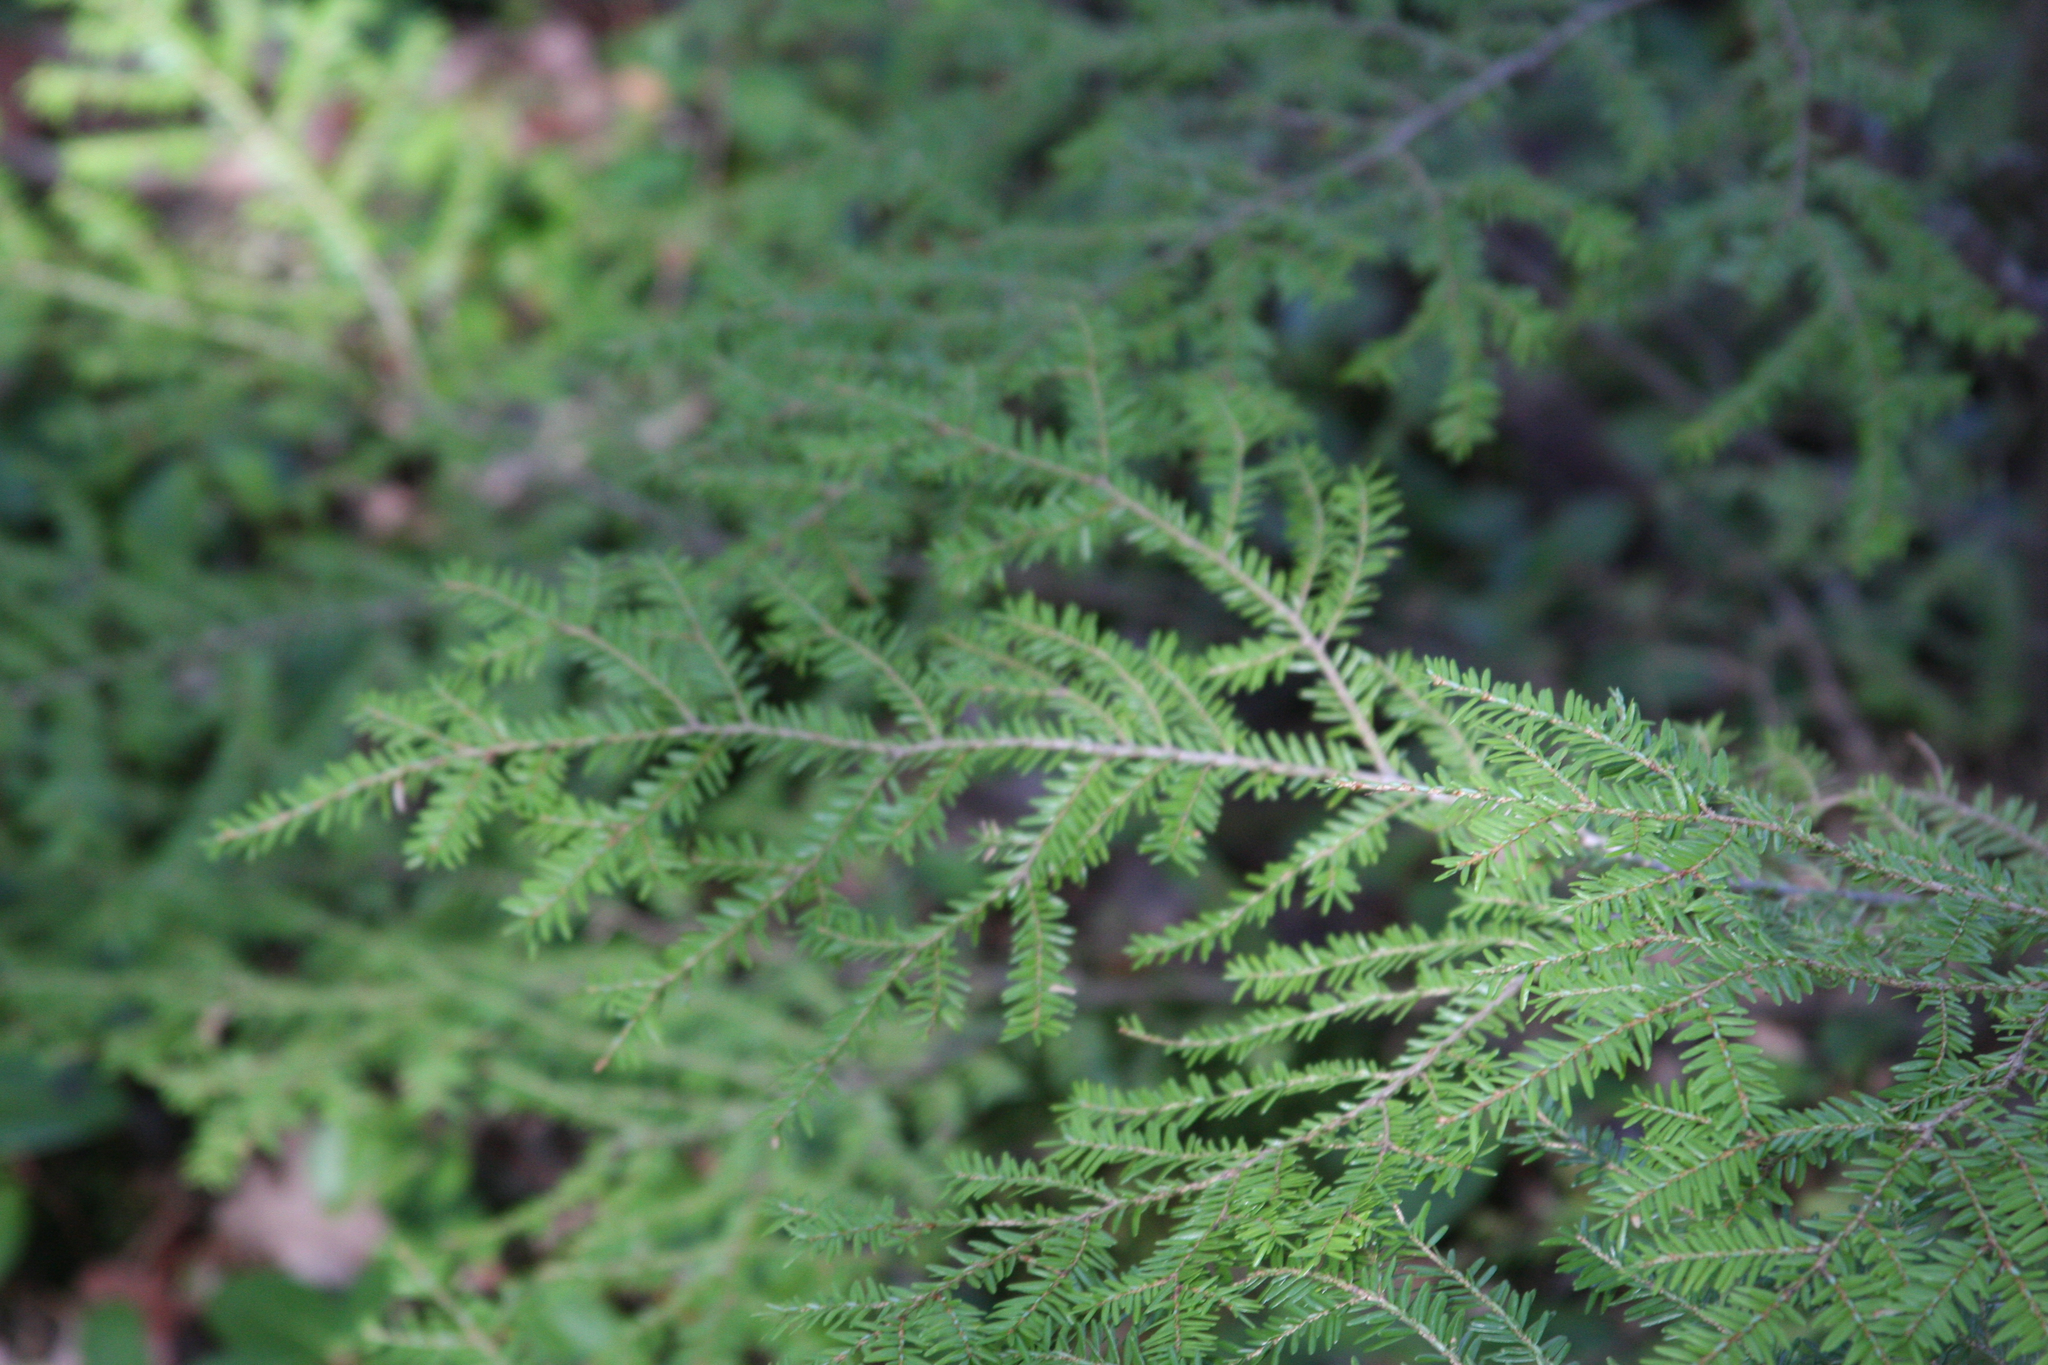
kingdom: Plantae
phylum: Tracheophyta
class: Pinopsida
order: Pinales
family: Pinaceae
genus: Tsuga
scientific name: Tsuga canadensis
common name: Eastern hemlock
